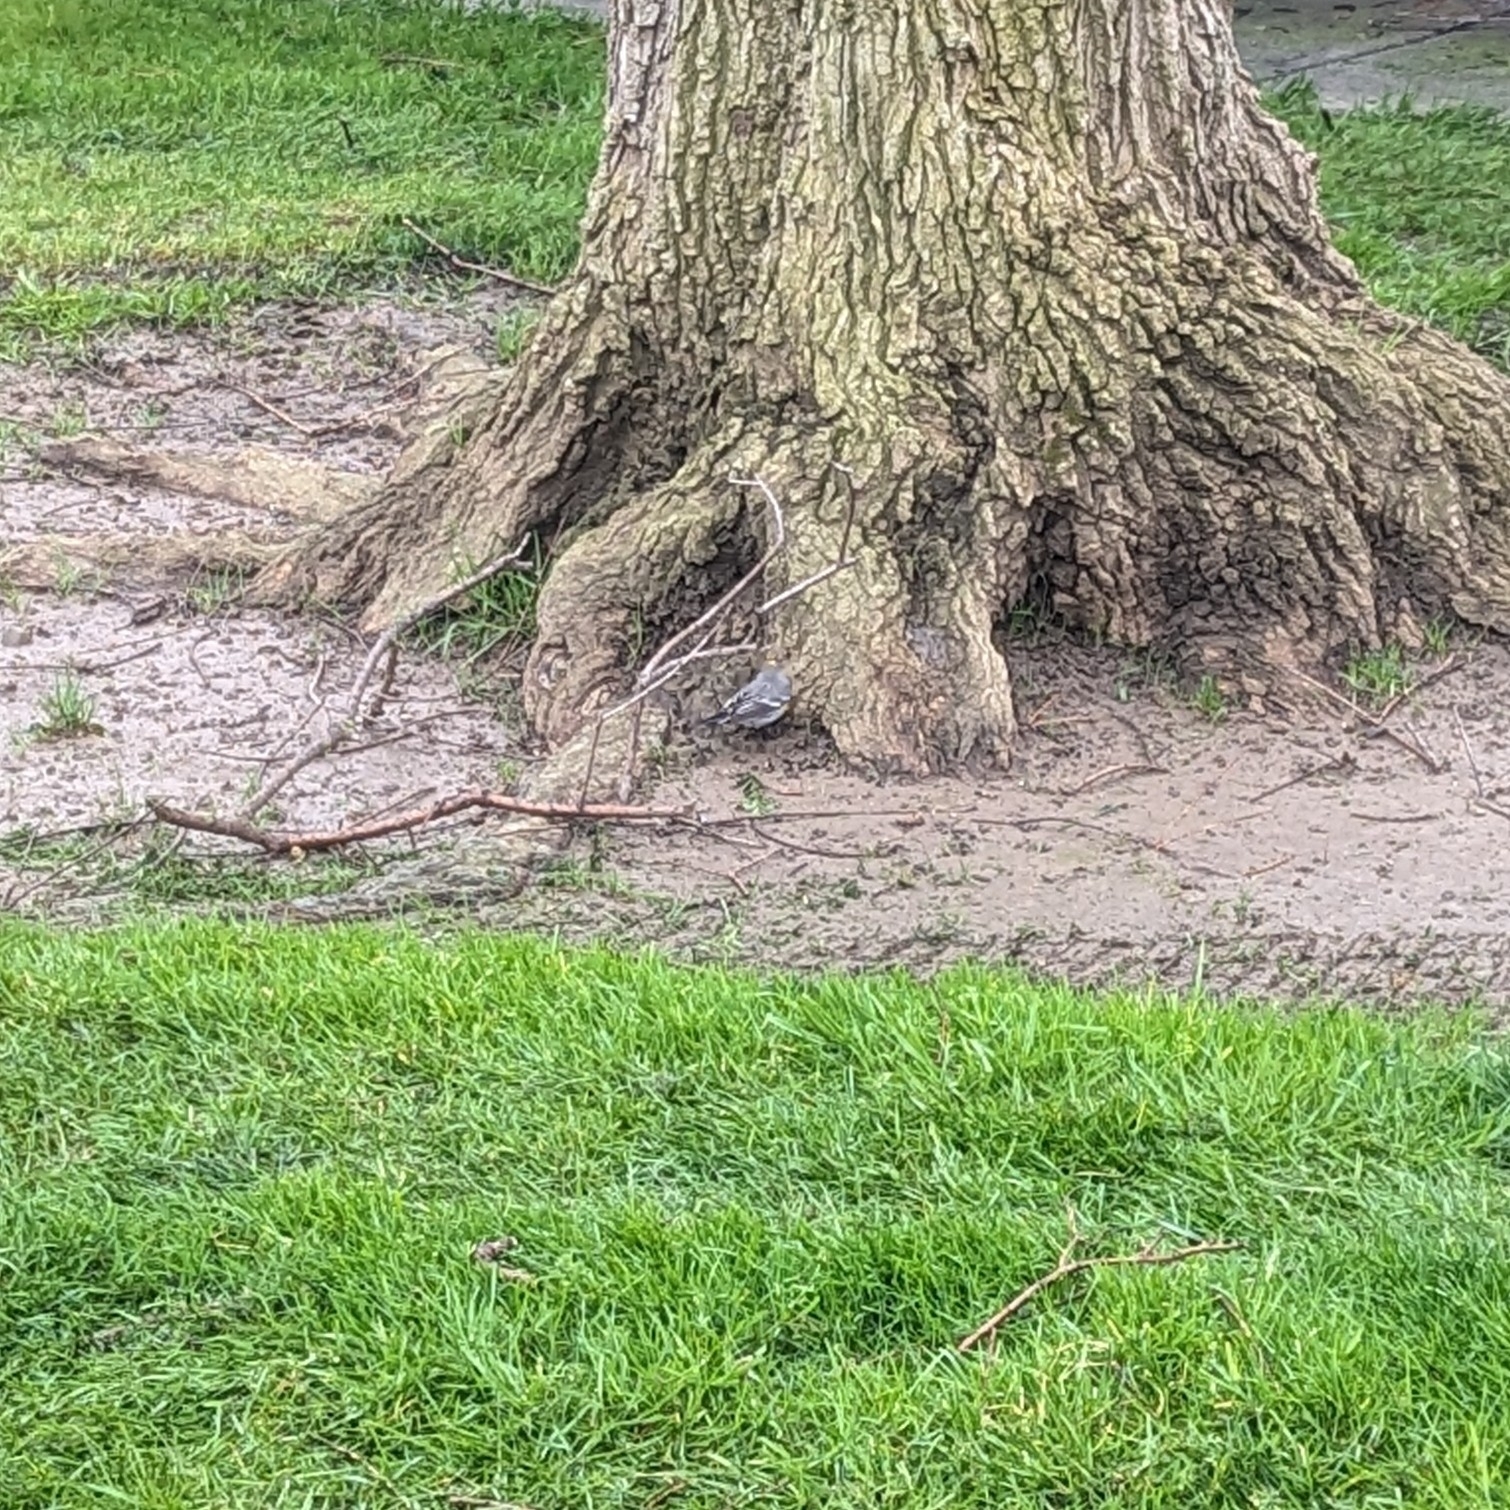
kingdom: Animalia
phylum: Chordata
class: Aves
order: Passeriformes
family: Parulidae
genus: Setophaga
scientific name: Setophaga coronata
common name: Myrtle warbler
